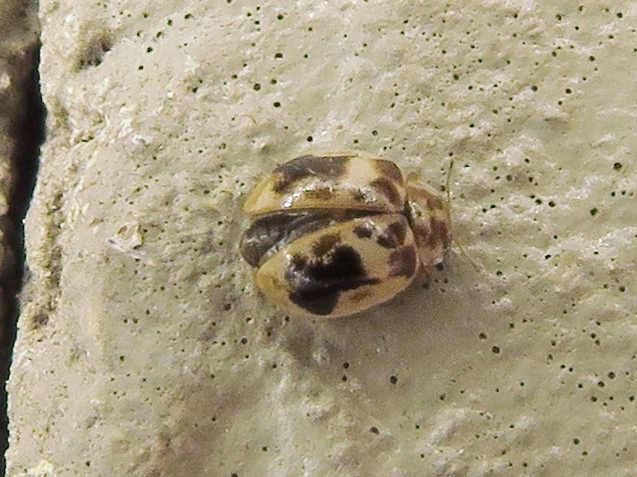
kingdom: Animalia
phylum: Arthropoda
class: Insecta
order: Coleoptera
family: Coccinellidae
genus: Psyllobora
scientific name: Psyllobora renifer
